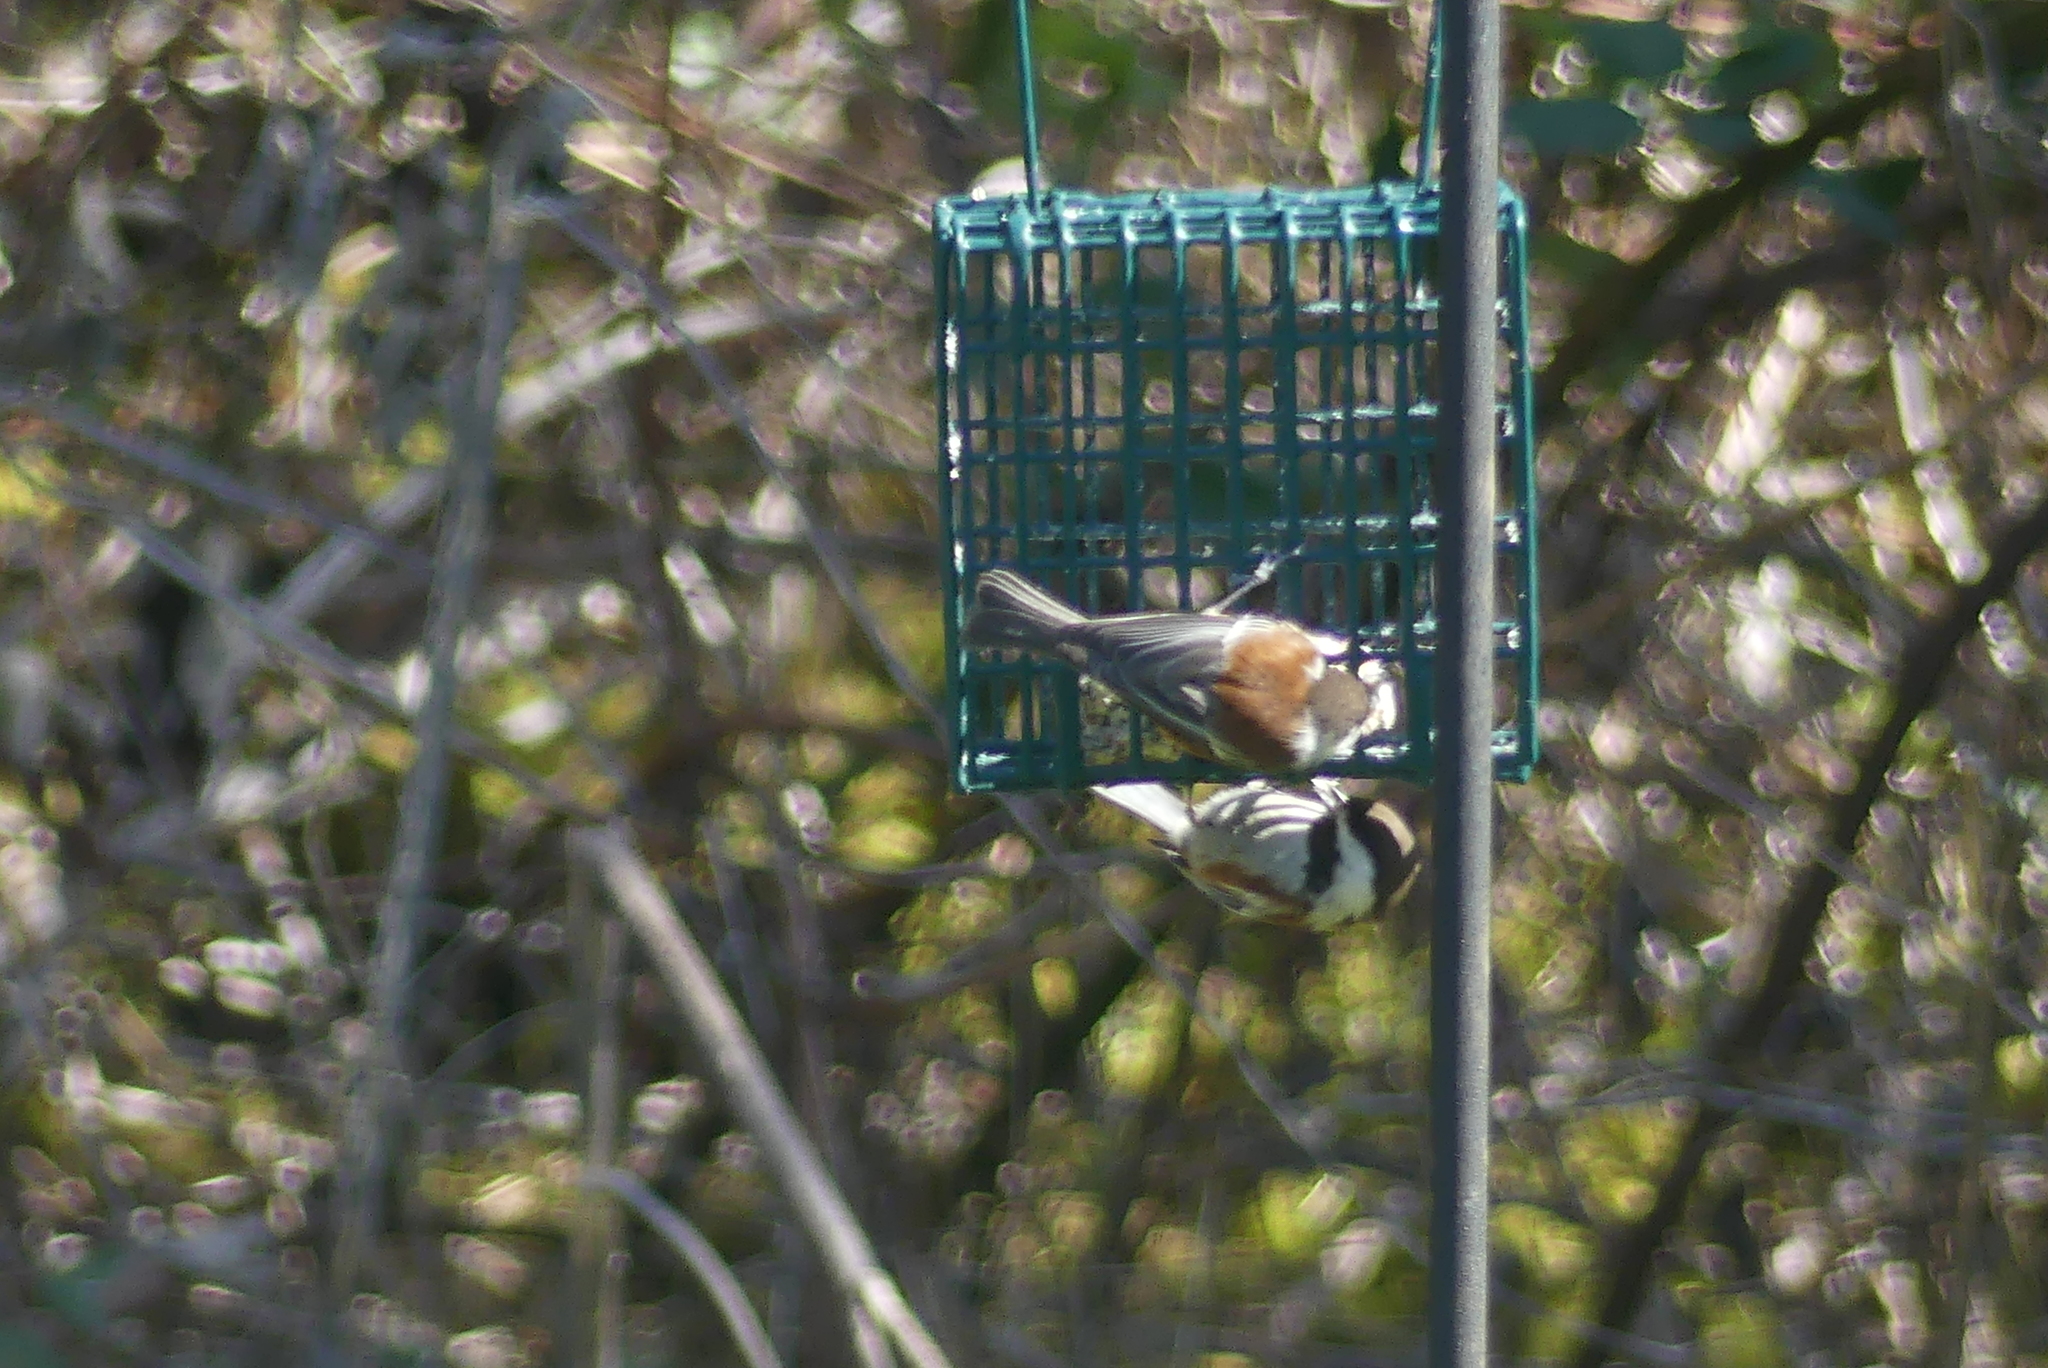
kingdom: Animalia
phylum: Chordata
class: Aves
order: Passeriformes
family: Paridae
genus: Poecile
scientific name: Poecile rufescens
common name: Chestnut-backed chickadee
